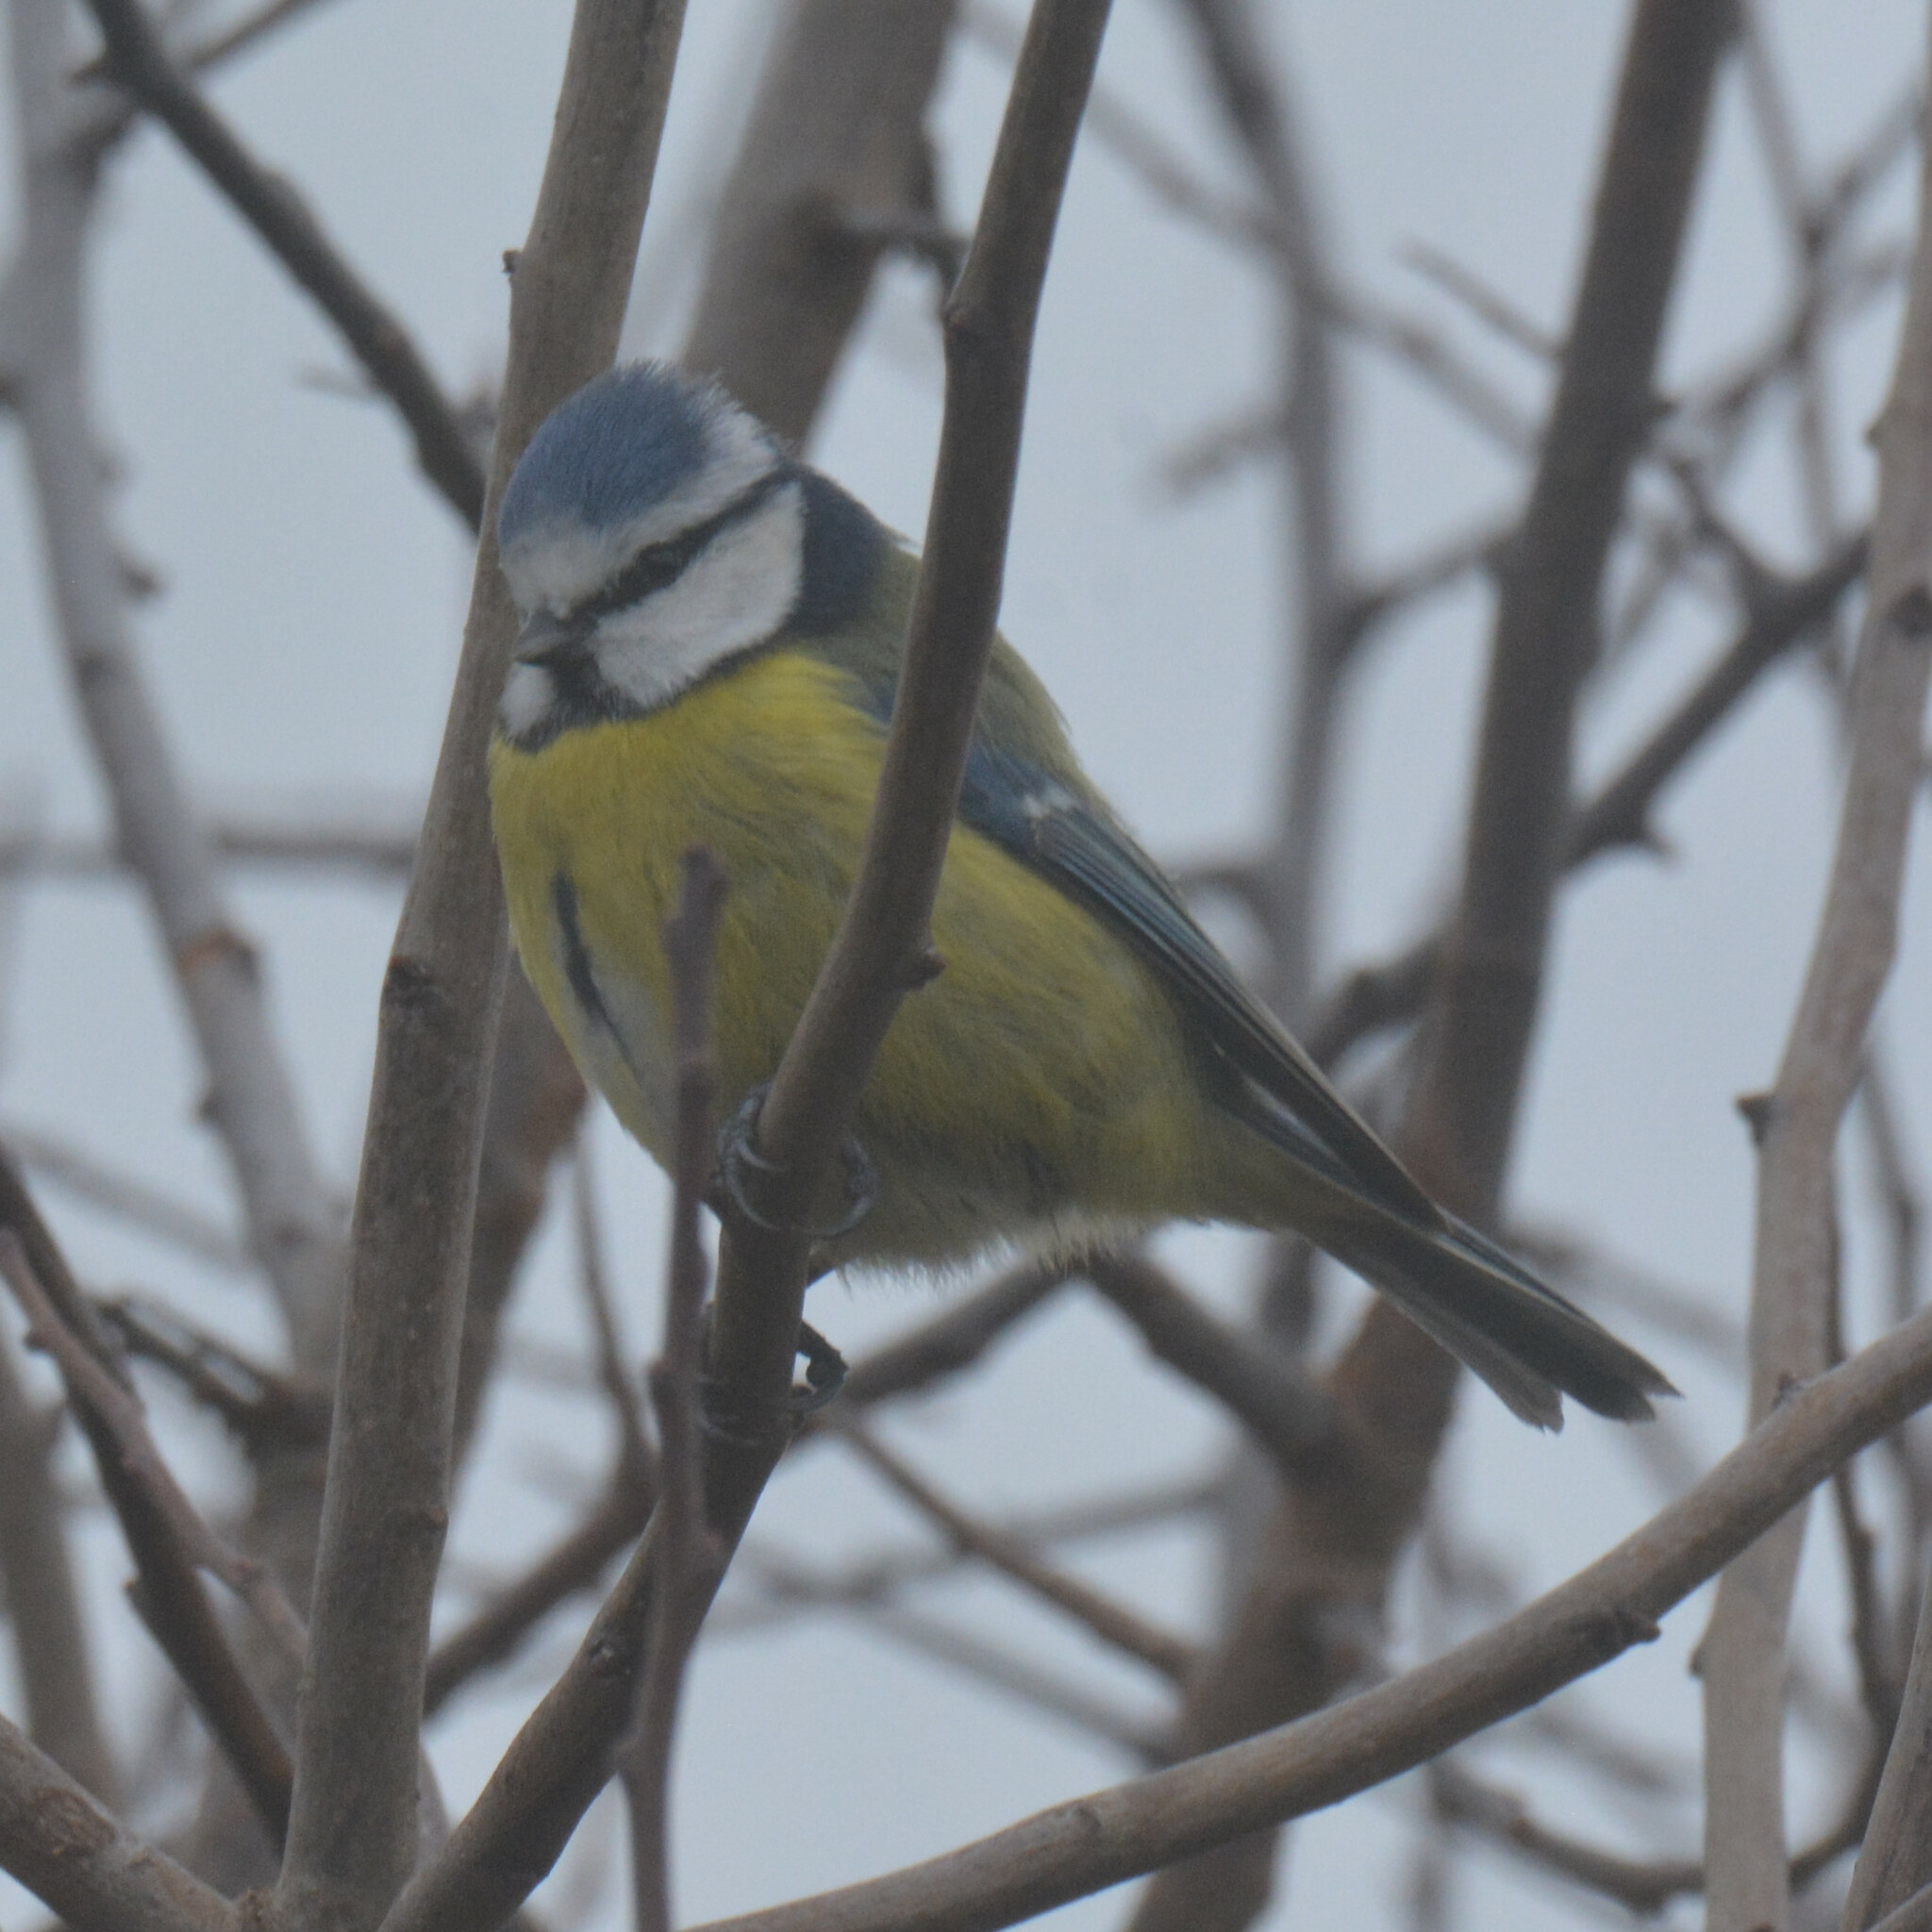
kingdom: Animalia
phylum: Chordata
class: Aves
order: Passeriformes
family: Paridae
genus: Cyanistes
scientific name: Cyanistes caeruleus
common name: Eurasian blue tit
